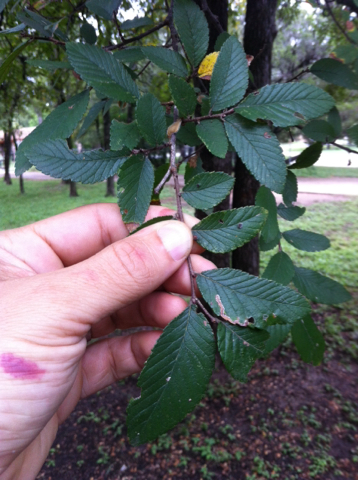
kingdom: Plantae
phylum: Tracheophyta
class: Magnoliopsida
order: Rosales
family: Ulmaceae
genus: Ulmus
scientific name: Ulmus crassifolia
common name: Basket elm
